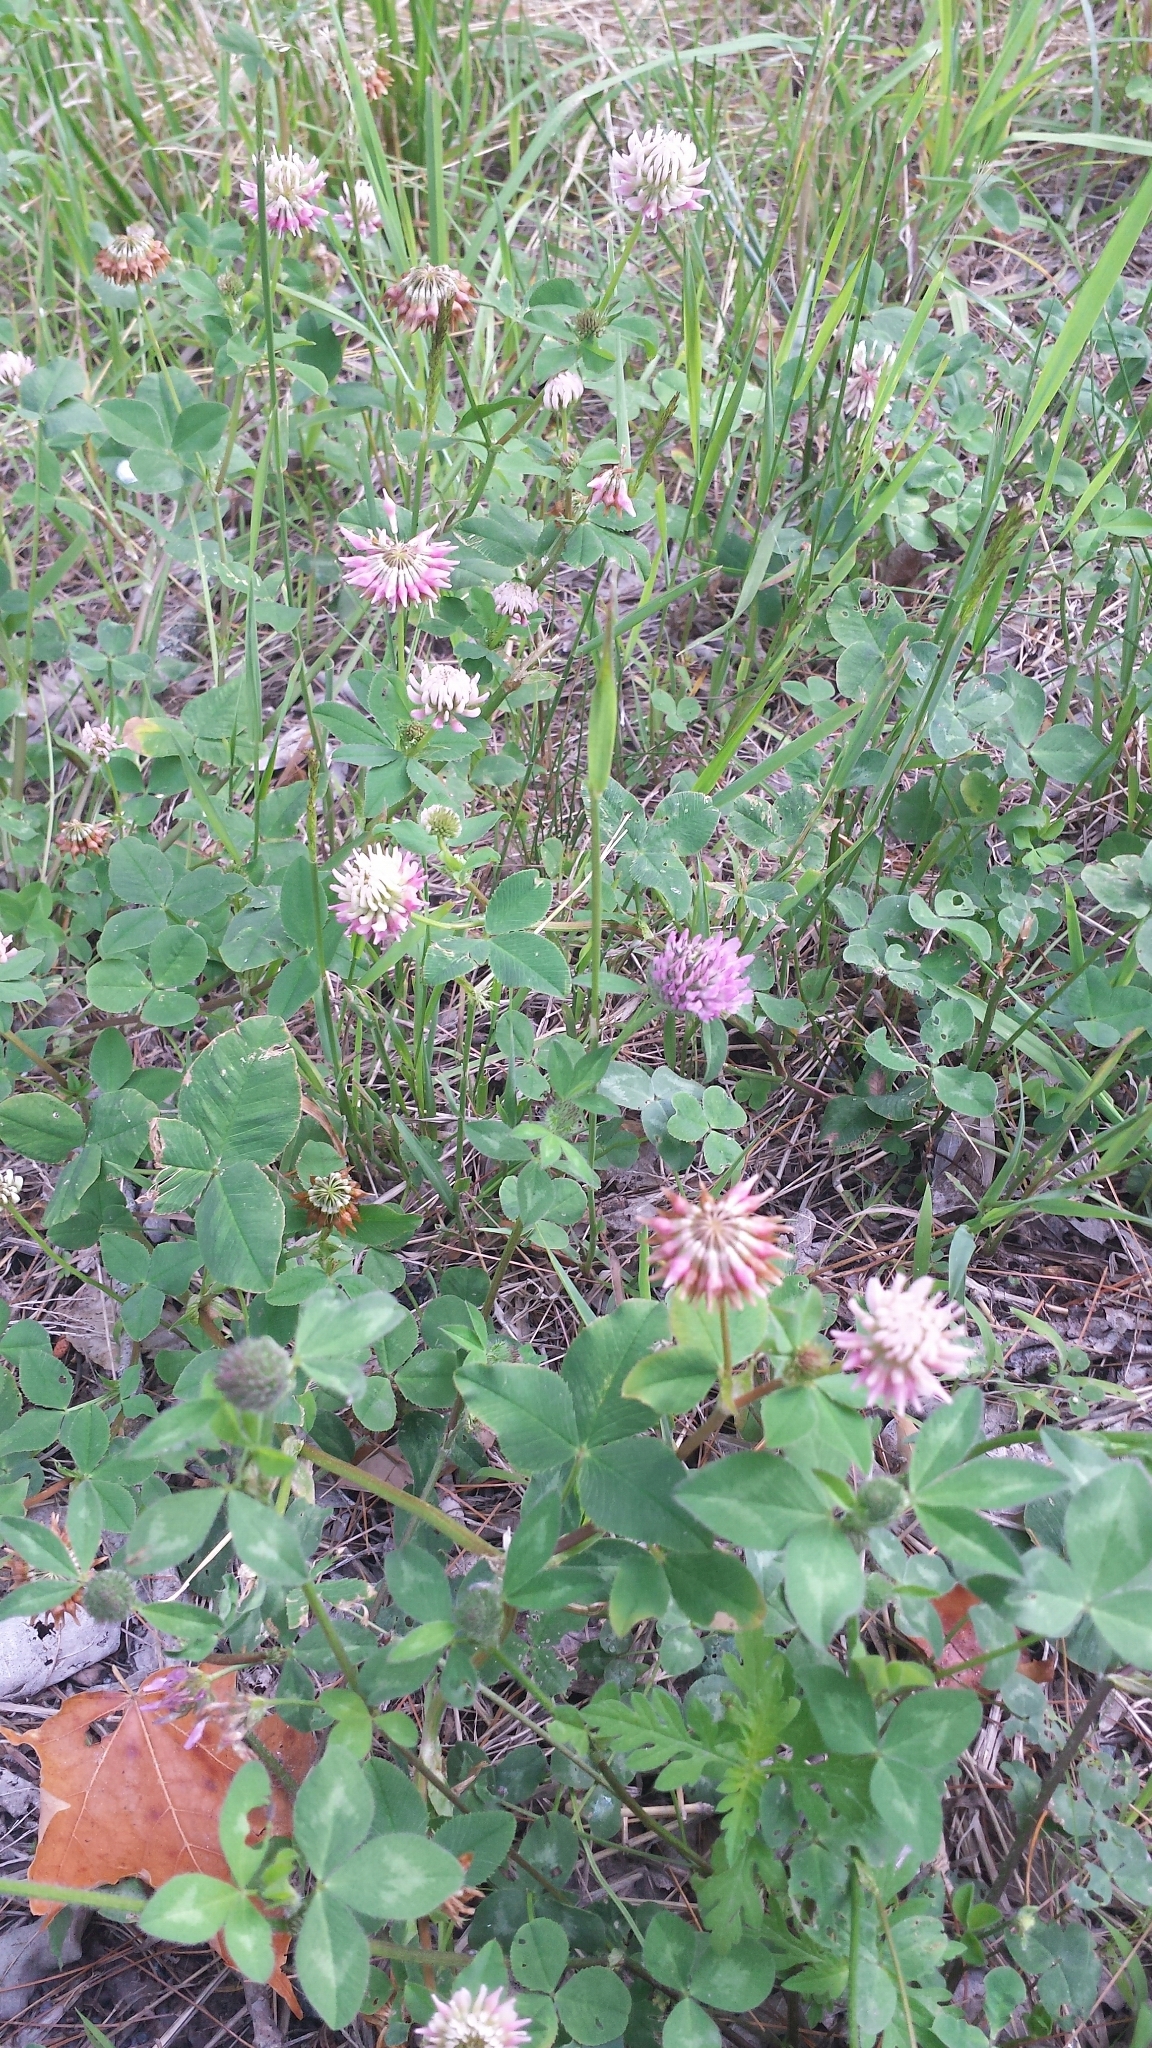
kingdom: Plantae
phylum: Tracheophyta
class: Magnoliopsida
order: Fabales
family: Fabaceae
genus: Trifolium
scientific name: Trifolium hybridum
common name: Alsike clover
